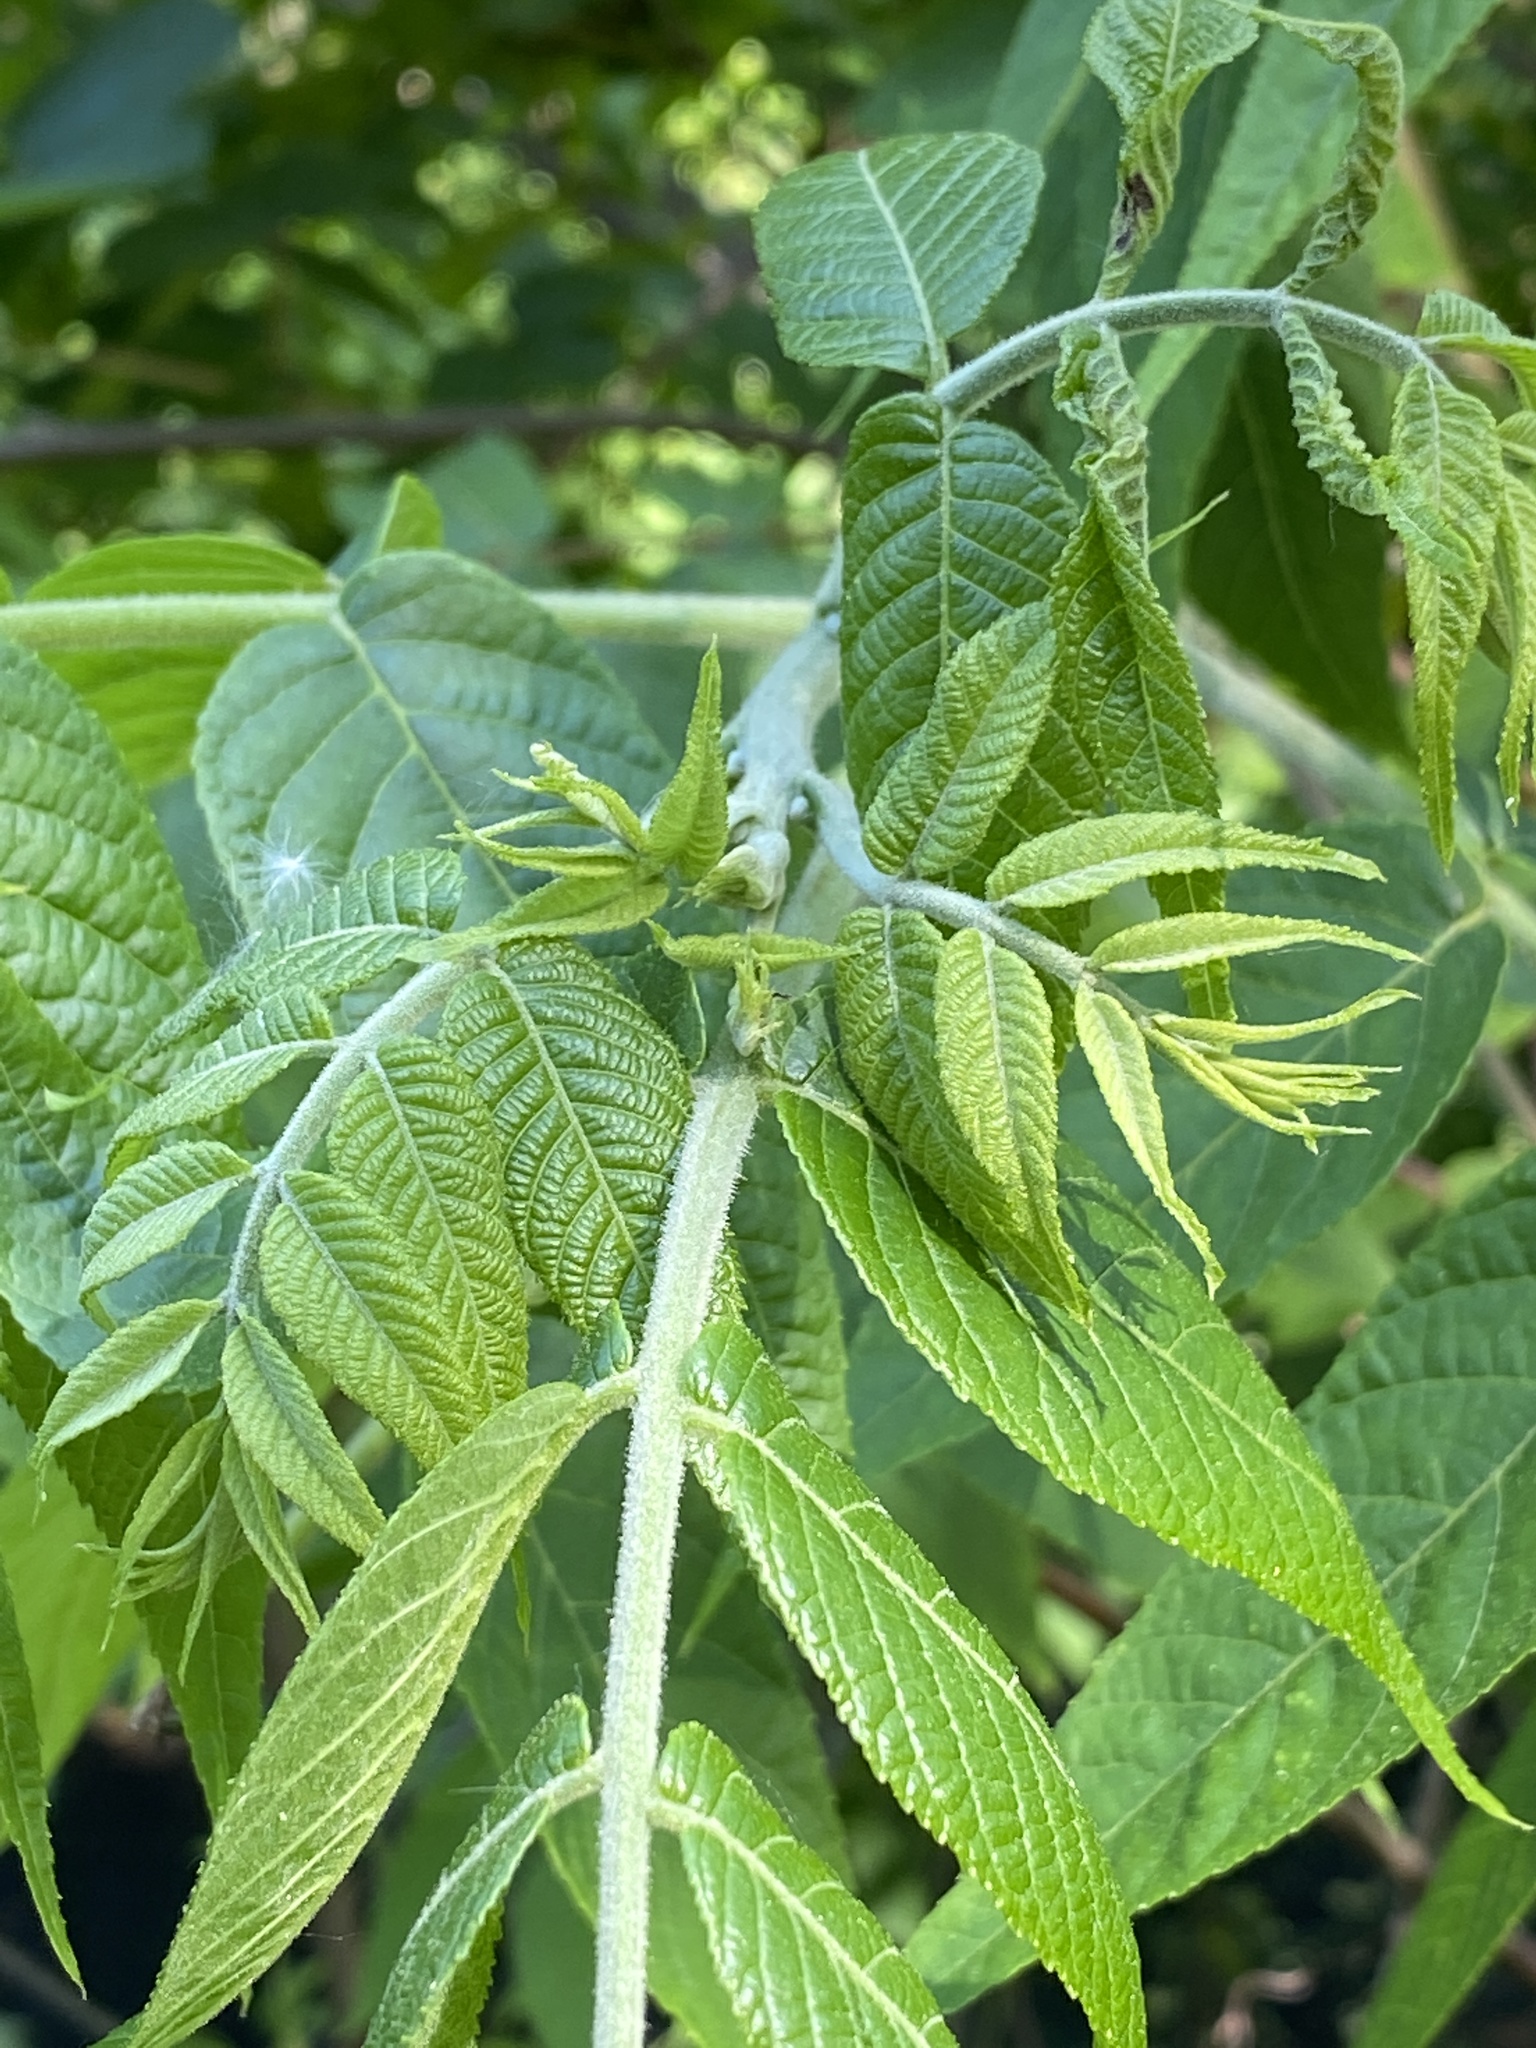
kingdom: Plantae
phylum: Tracheophyta
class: Magnoliopsida
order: Fagales
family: Juglandaceae
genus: Juglans
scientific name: Juglans nigra
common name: Black walnut
